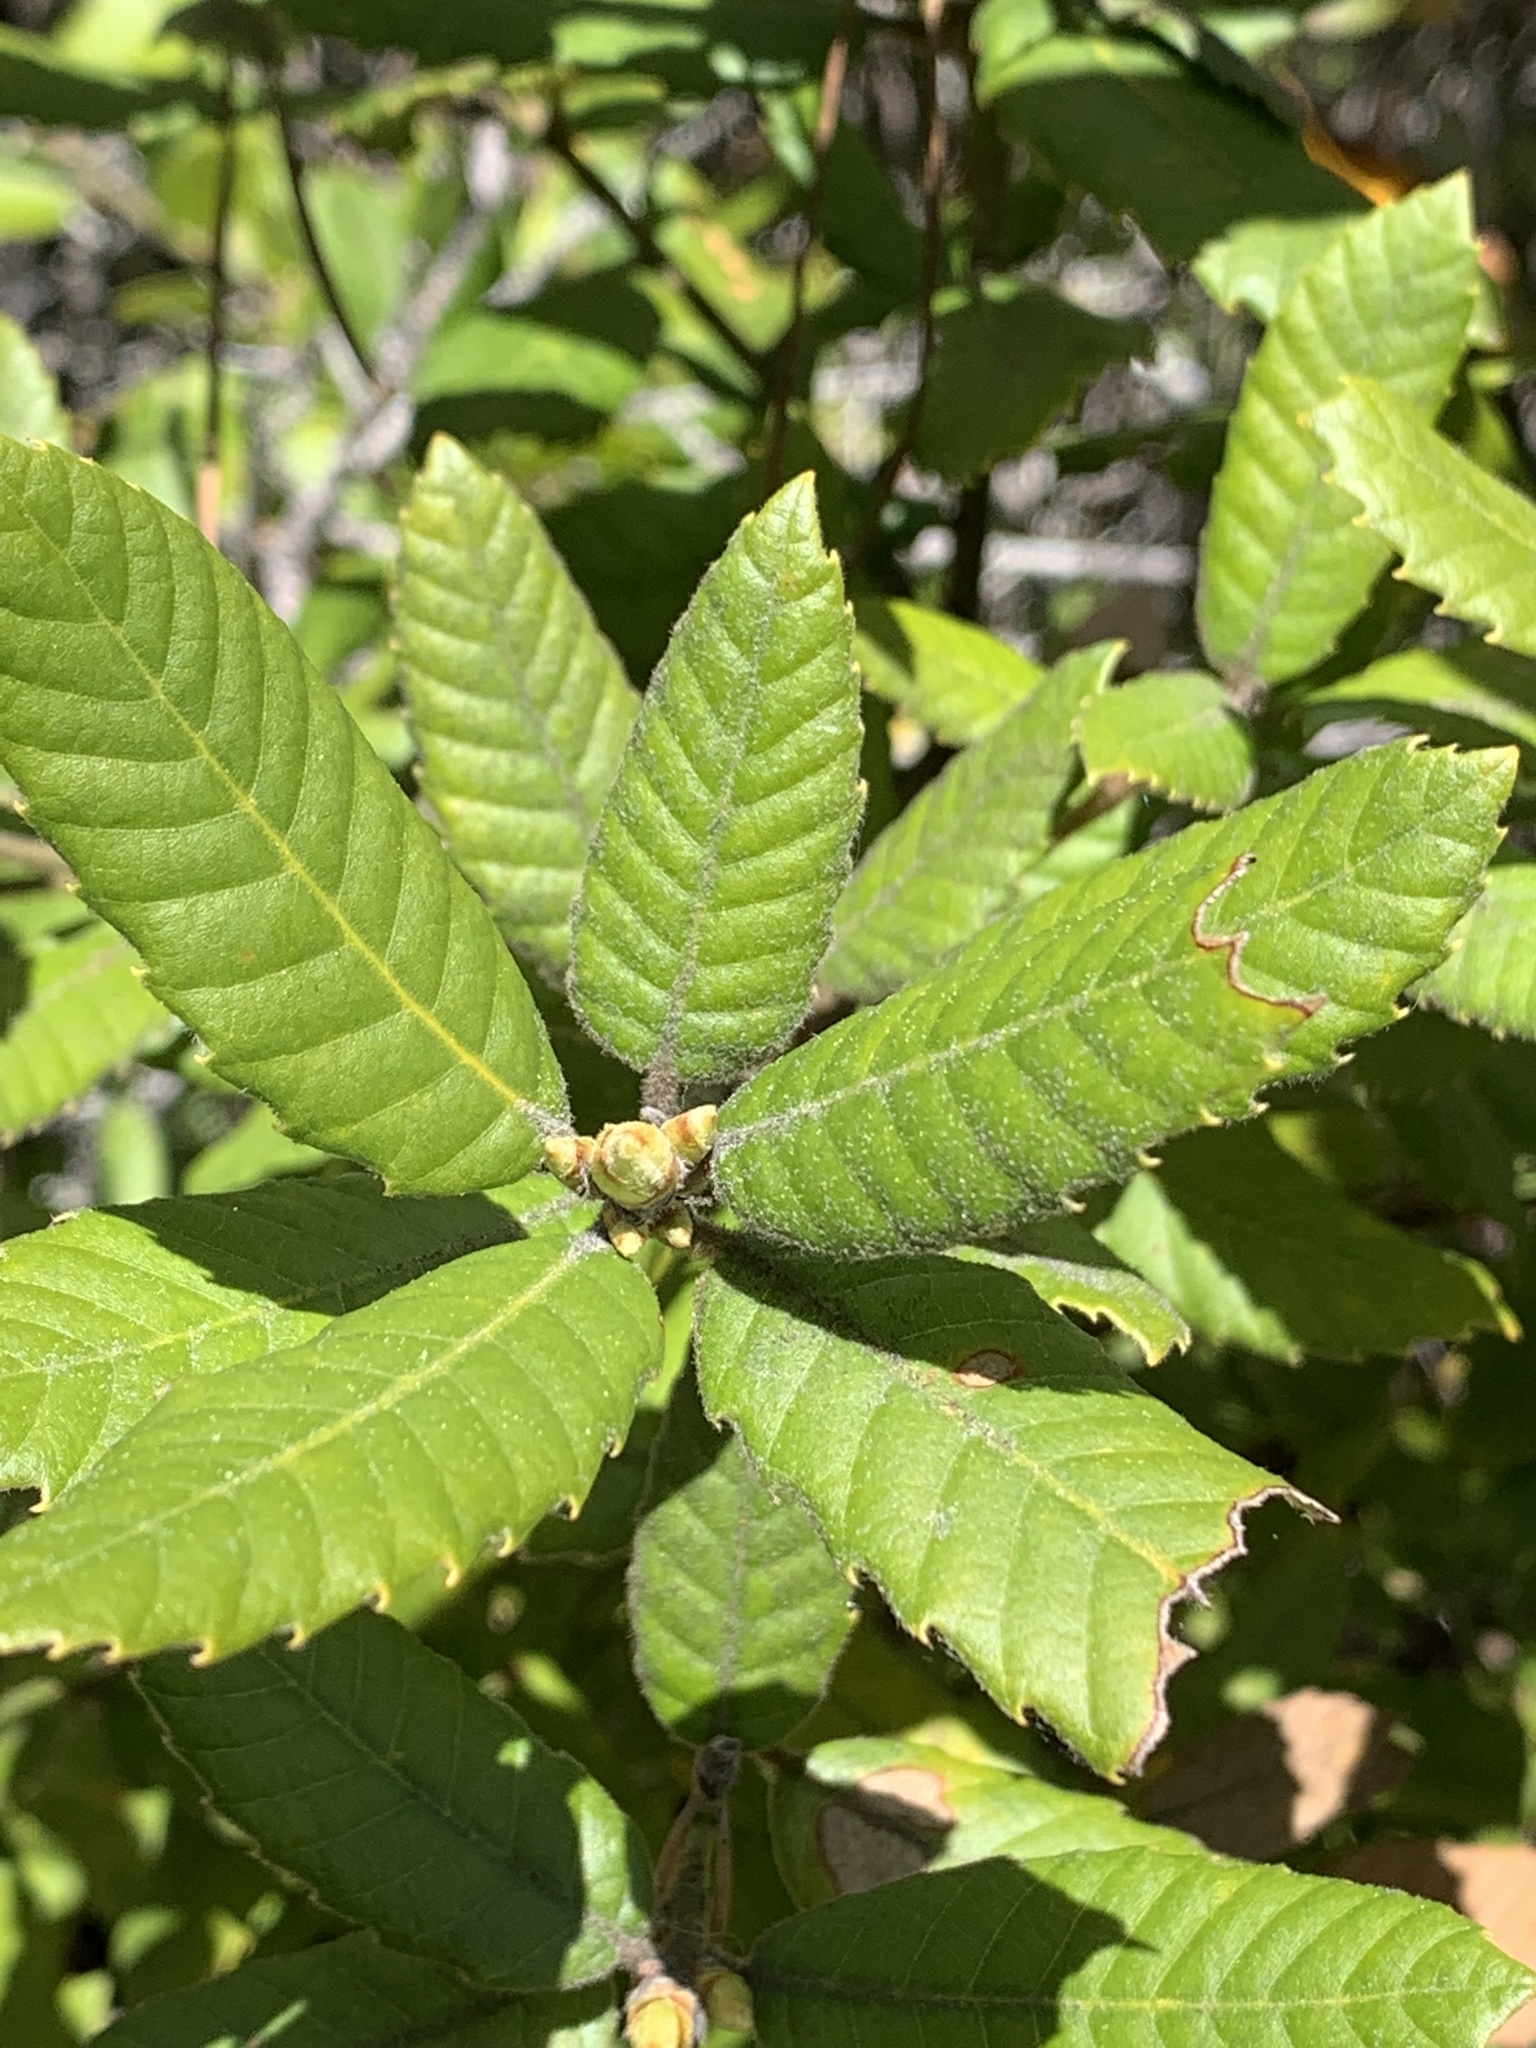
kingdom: Plantae
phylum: Tracheophyta
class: Magnoliopsida
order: Fagales
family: Fagaceae
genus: Notholithocarpus
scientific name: Notholithocarpus densiflorus
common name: Tan bark oak
